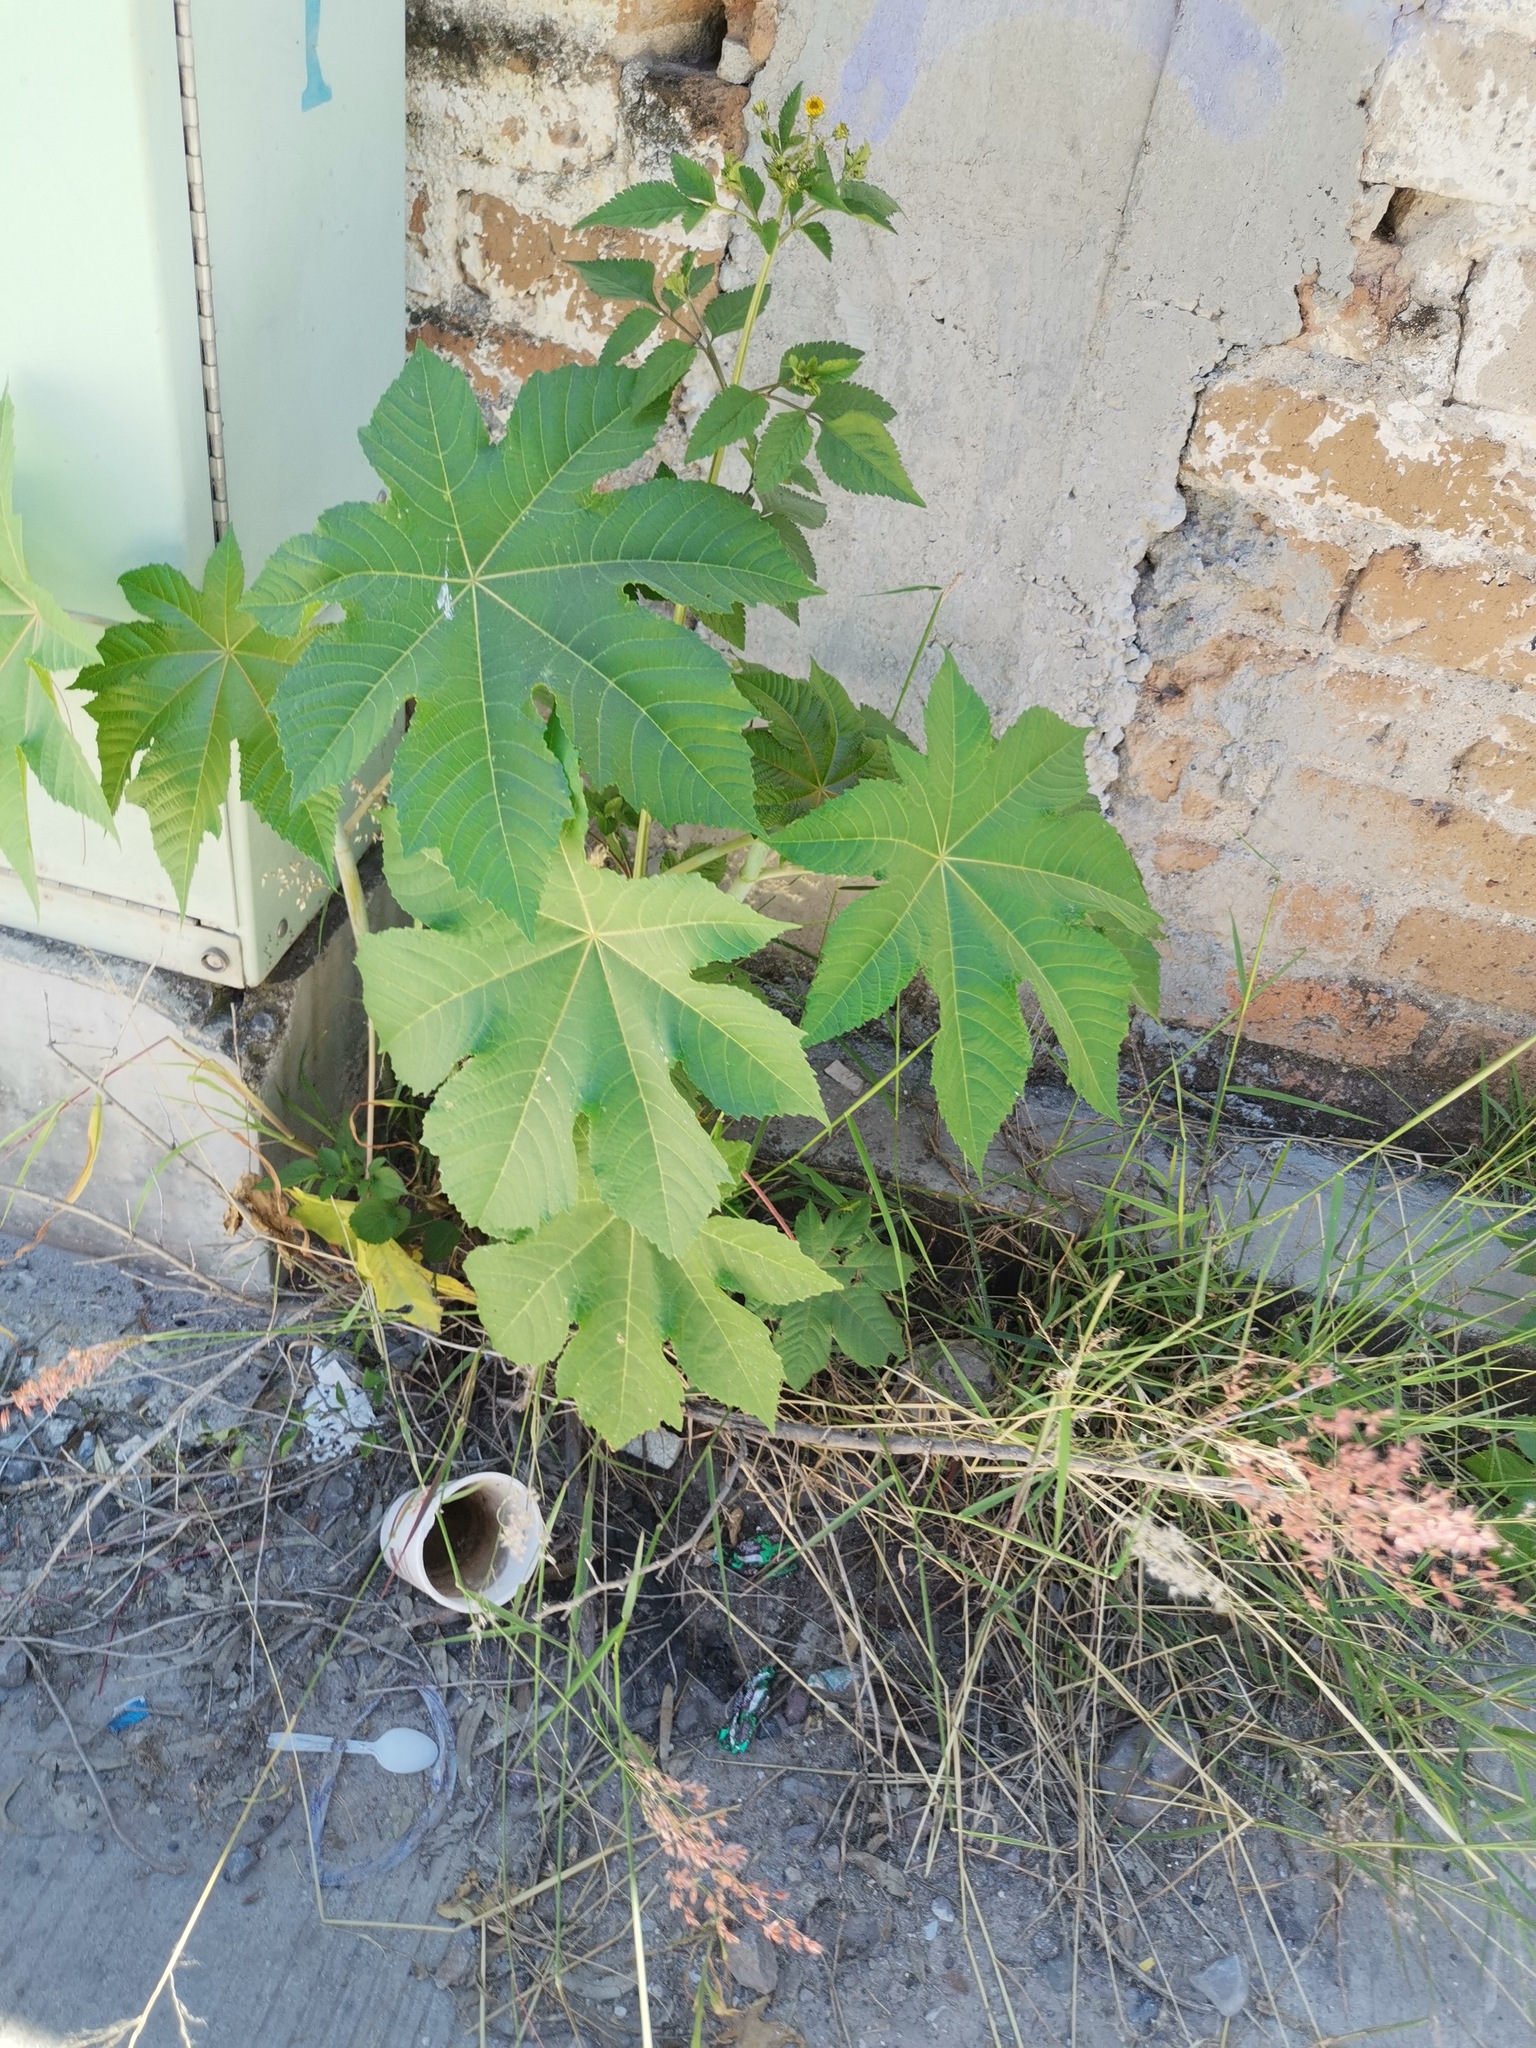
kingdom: Plantae
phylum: Tracheophyta
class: Magnoliopsida
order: Malpighiales
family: Euphorbiaceae
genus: Ricinus
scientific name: Ricinus communis
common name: Castor-oil-plant
